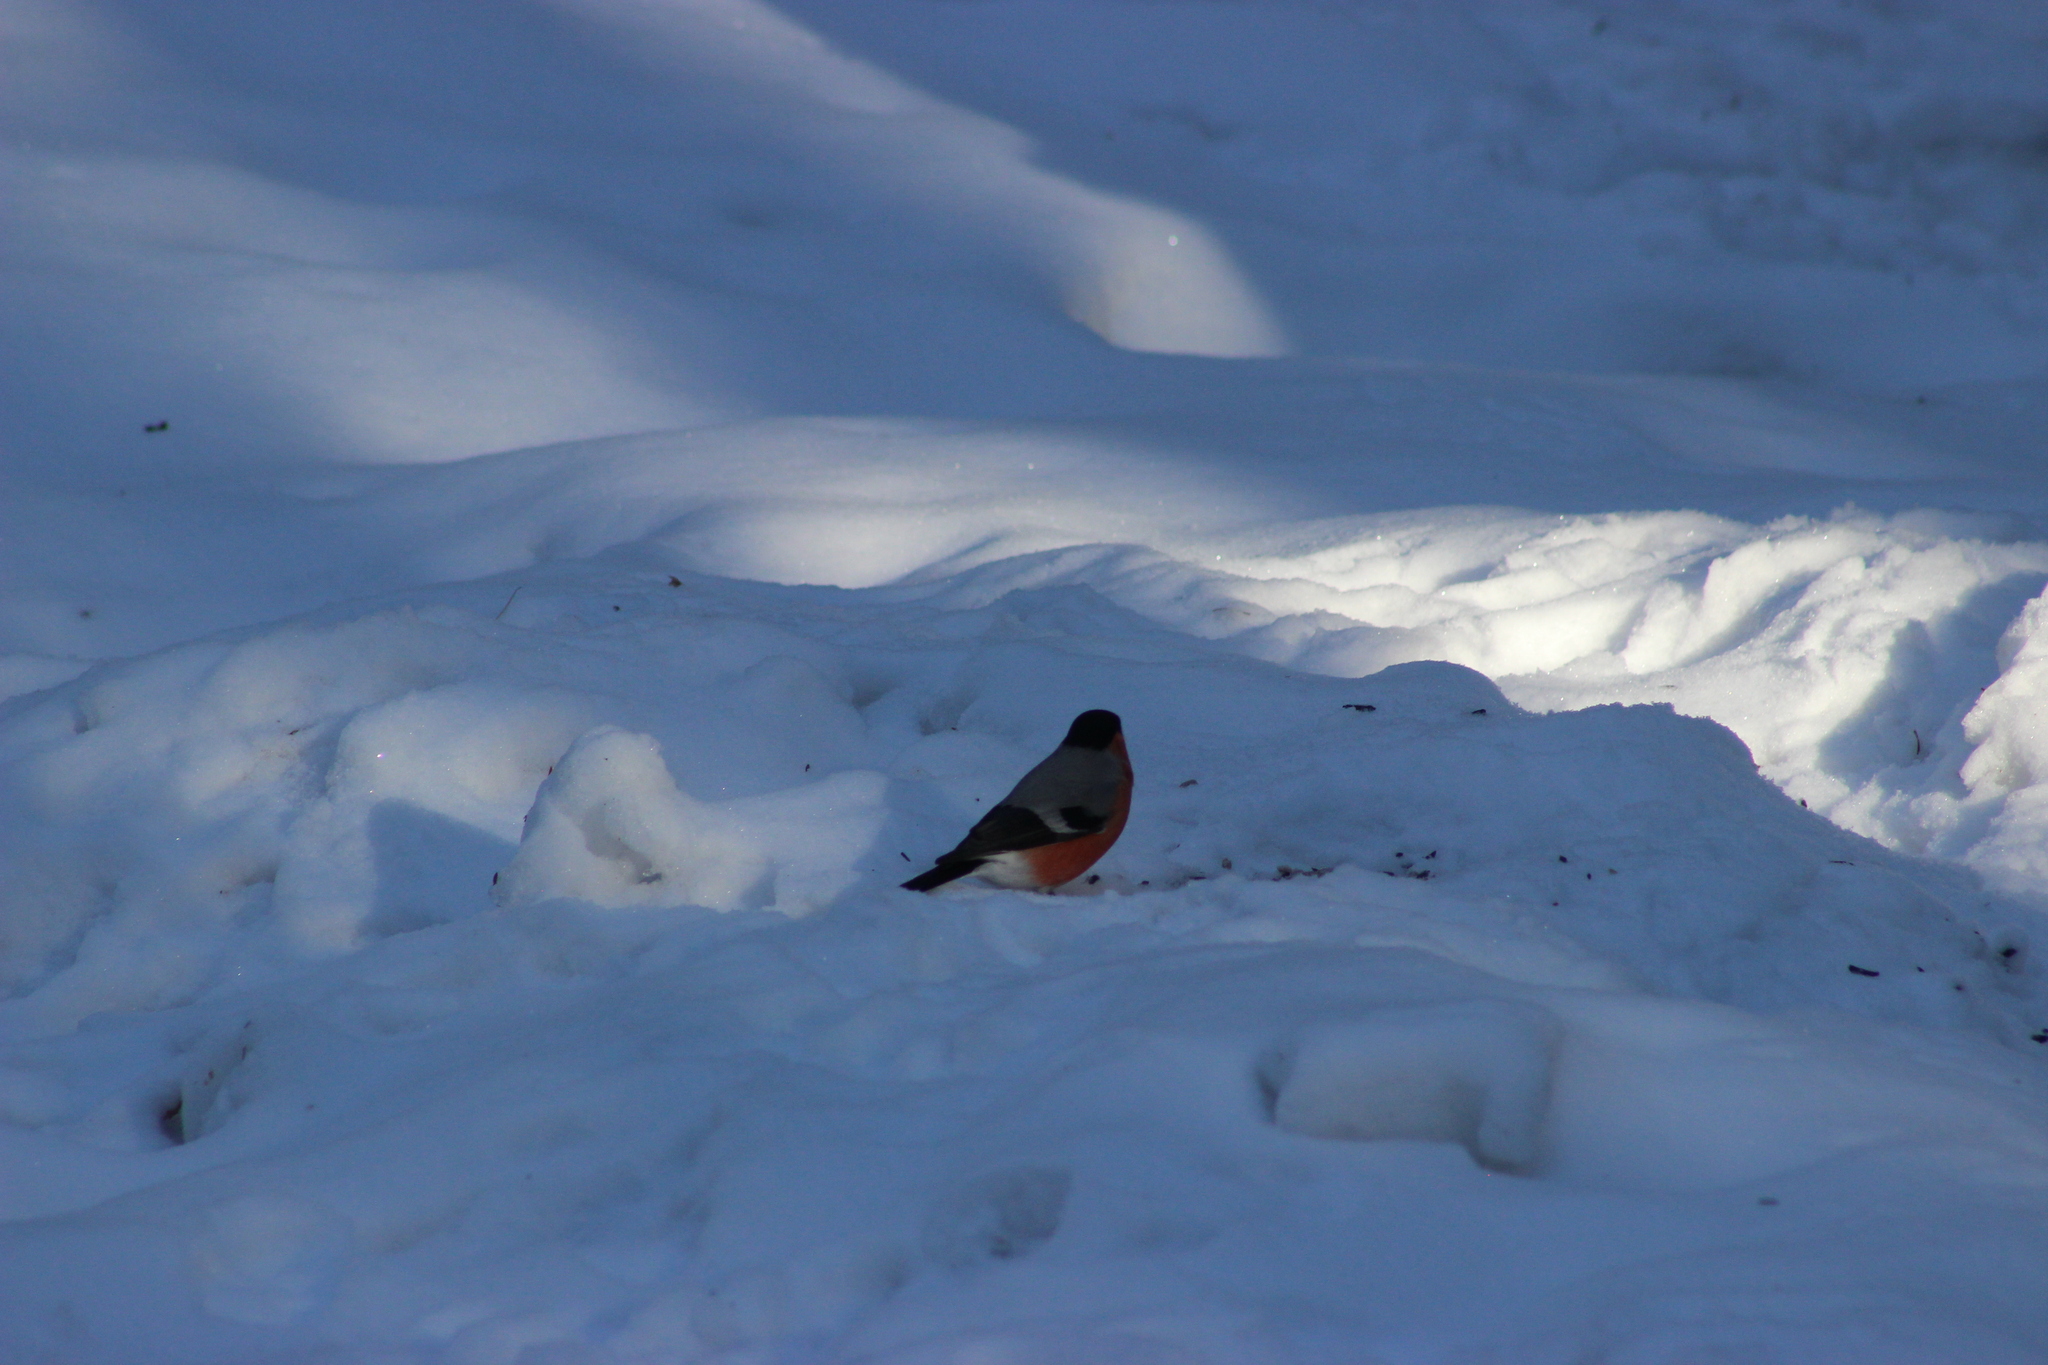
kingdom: Animalia
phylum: Chordata
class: Aves
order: Passeriformes
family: Fringillidae
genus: Pyrrhula
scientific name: Pyrrhula pyrrhula
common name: Eurasian bullfinch
